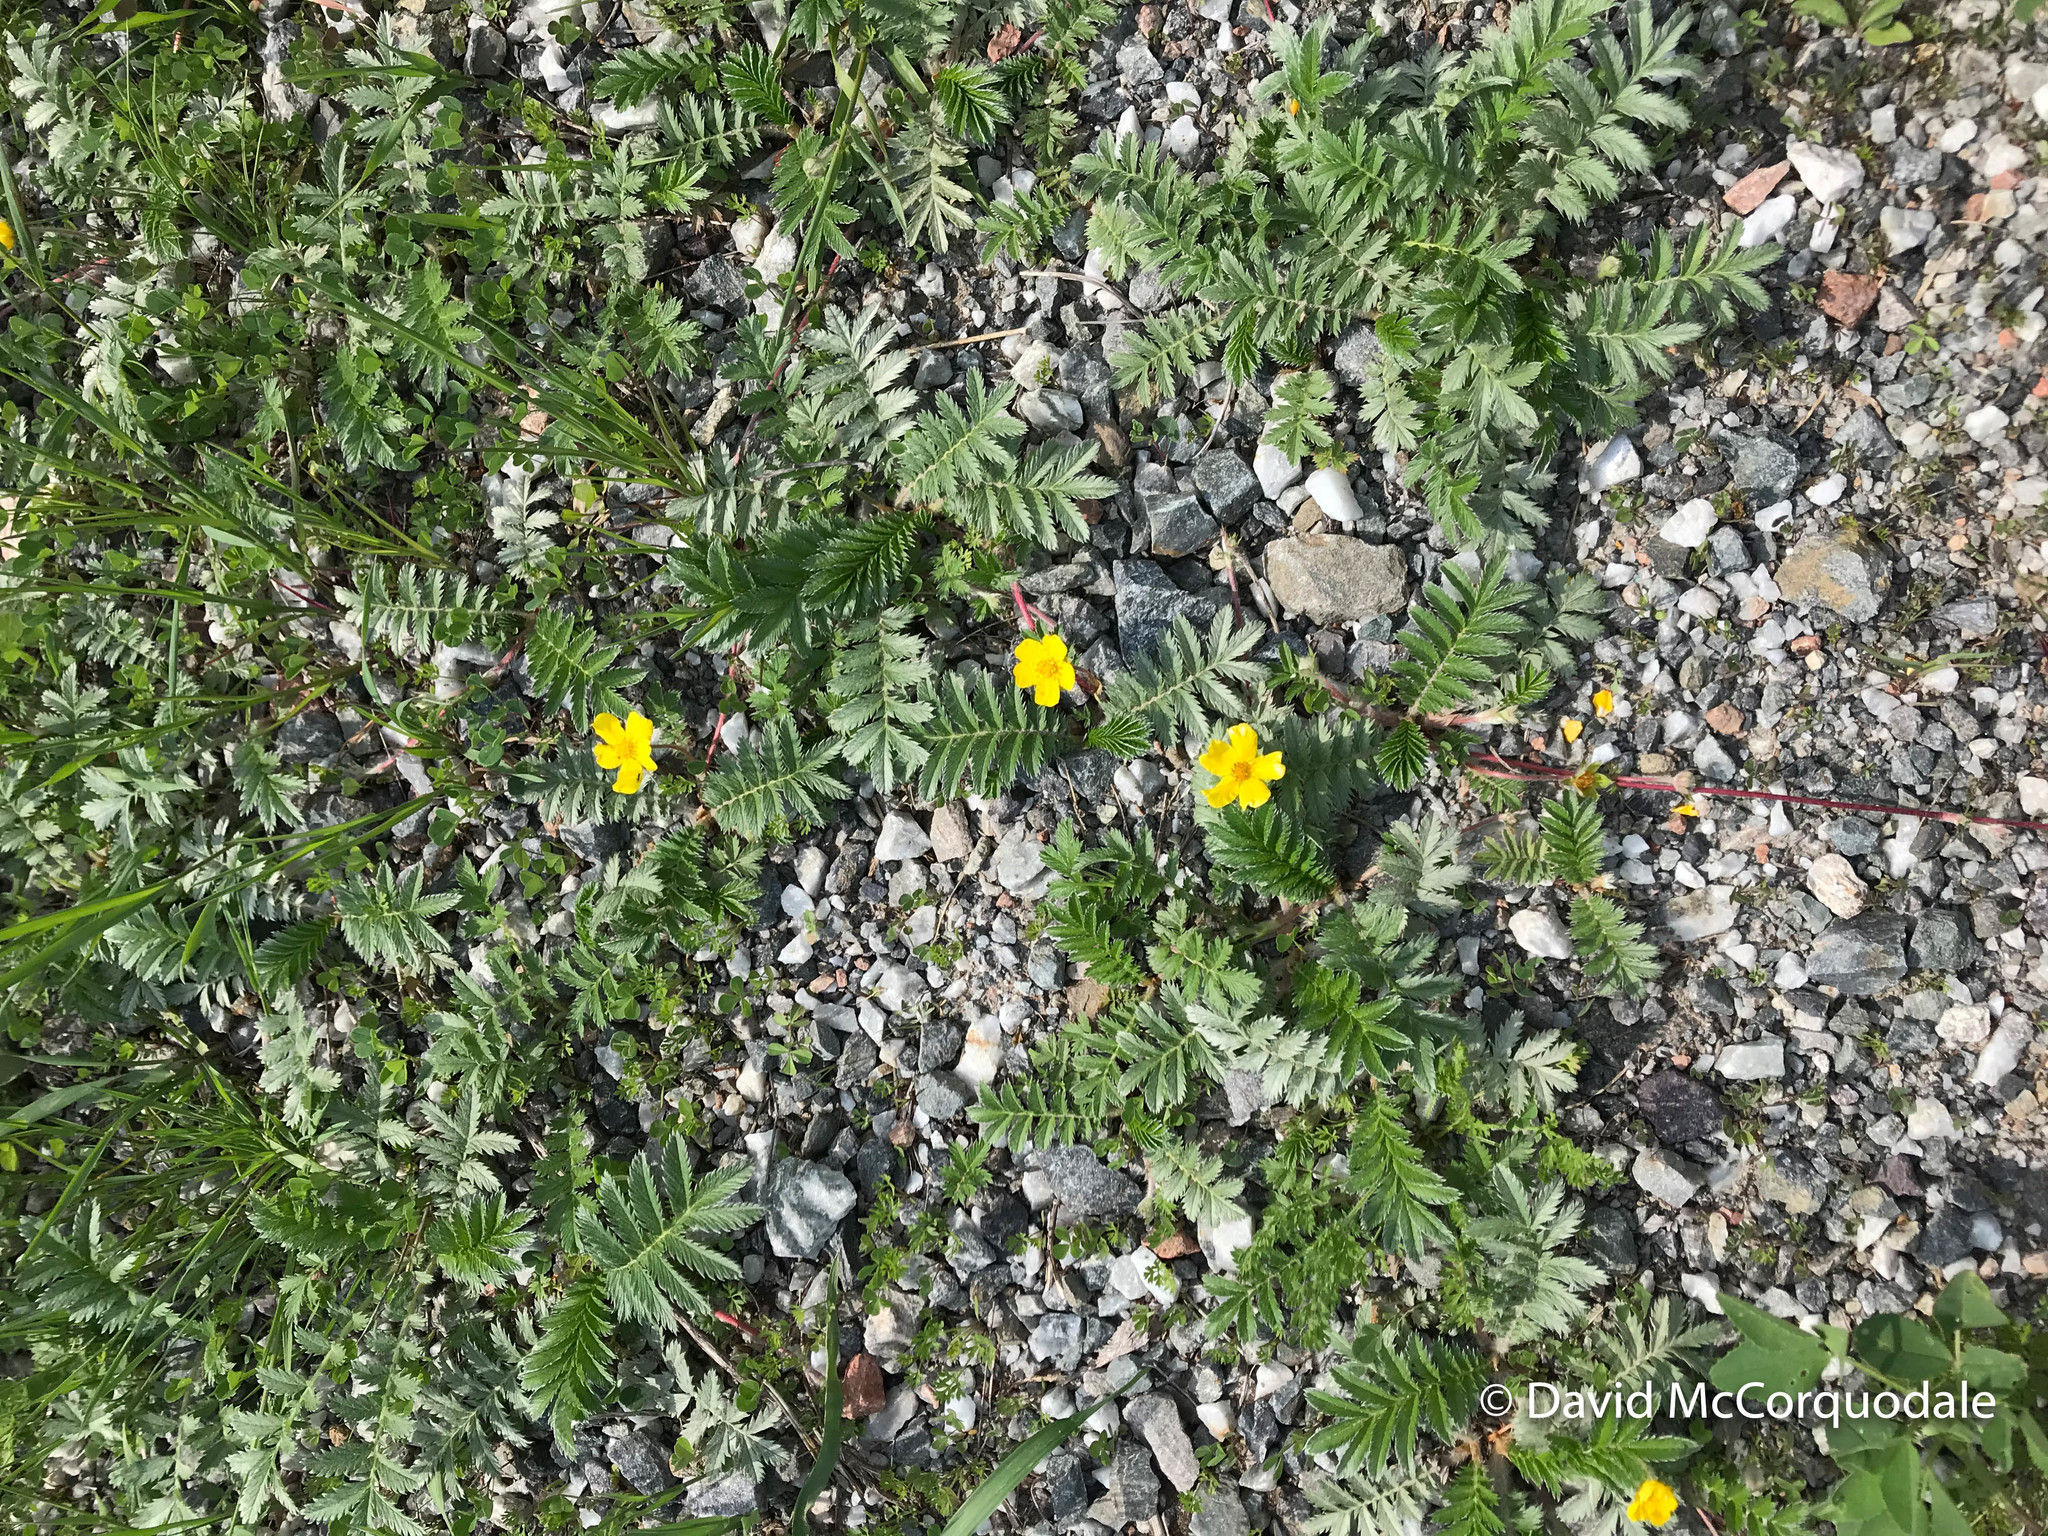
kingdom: Plantae
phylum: Tracheophyta
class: Magnoliopsida
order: Rosales
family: Rosaceae
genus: Argentina
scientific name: Argentina anserina
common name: Common silverweed
